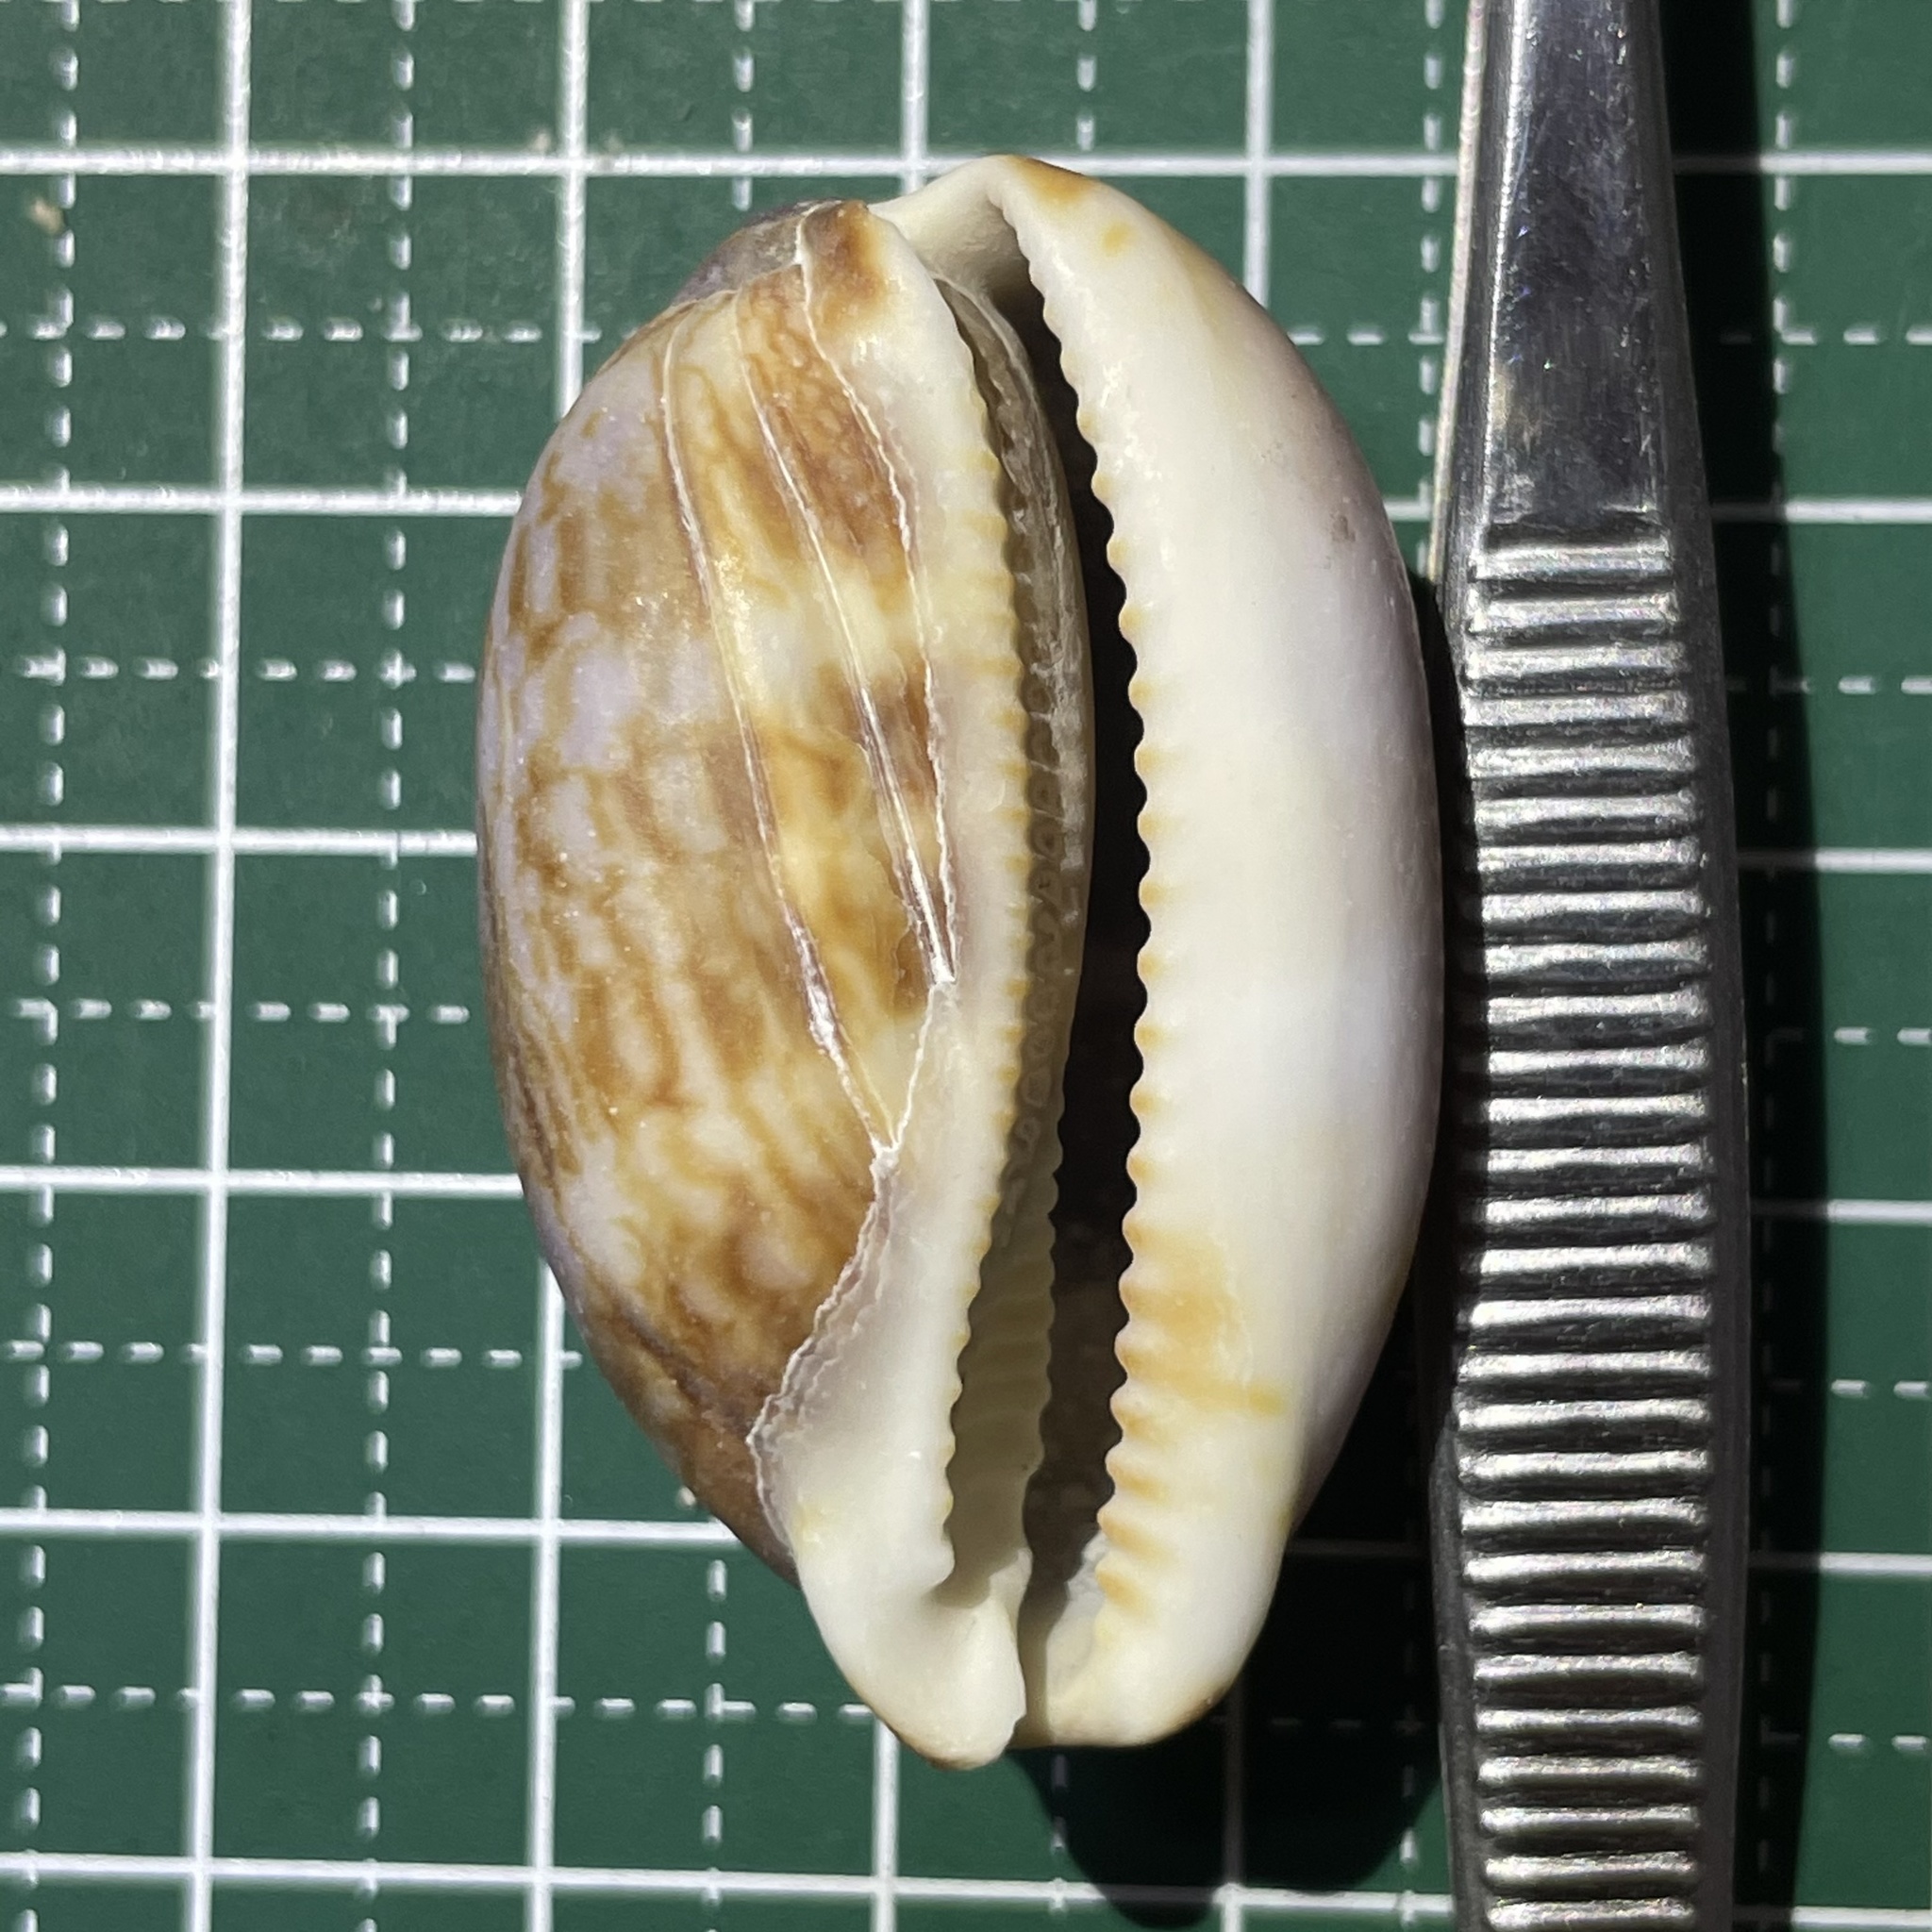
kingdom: Animalia
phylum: Mollusca
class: Gastropoda
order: Littorinimorpha
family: Cypraeidae
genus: Mauritia
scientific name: Mauritia arabica
